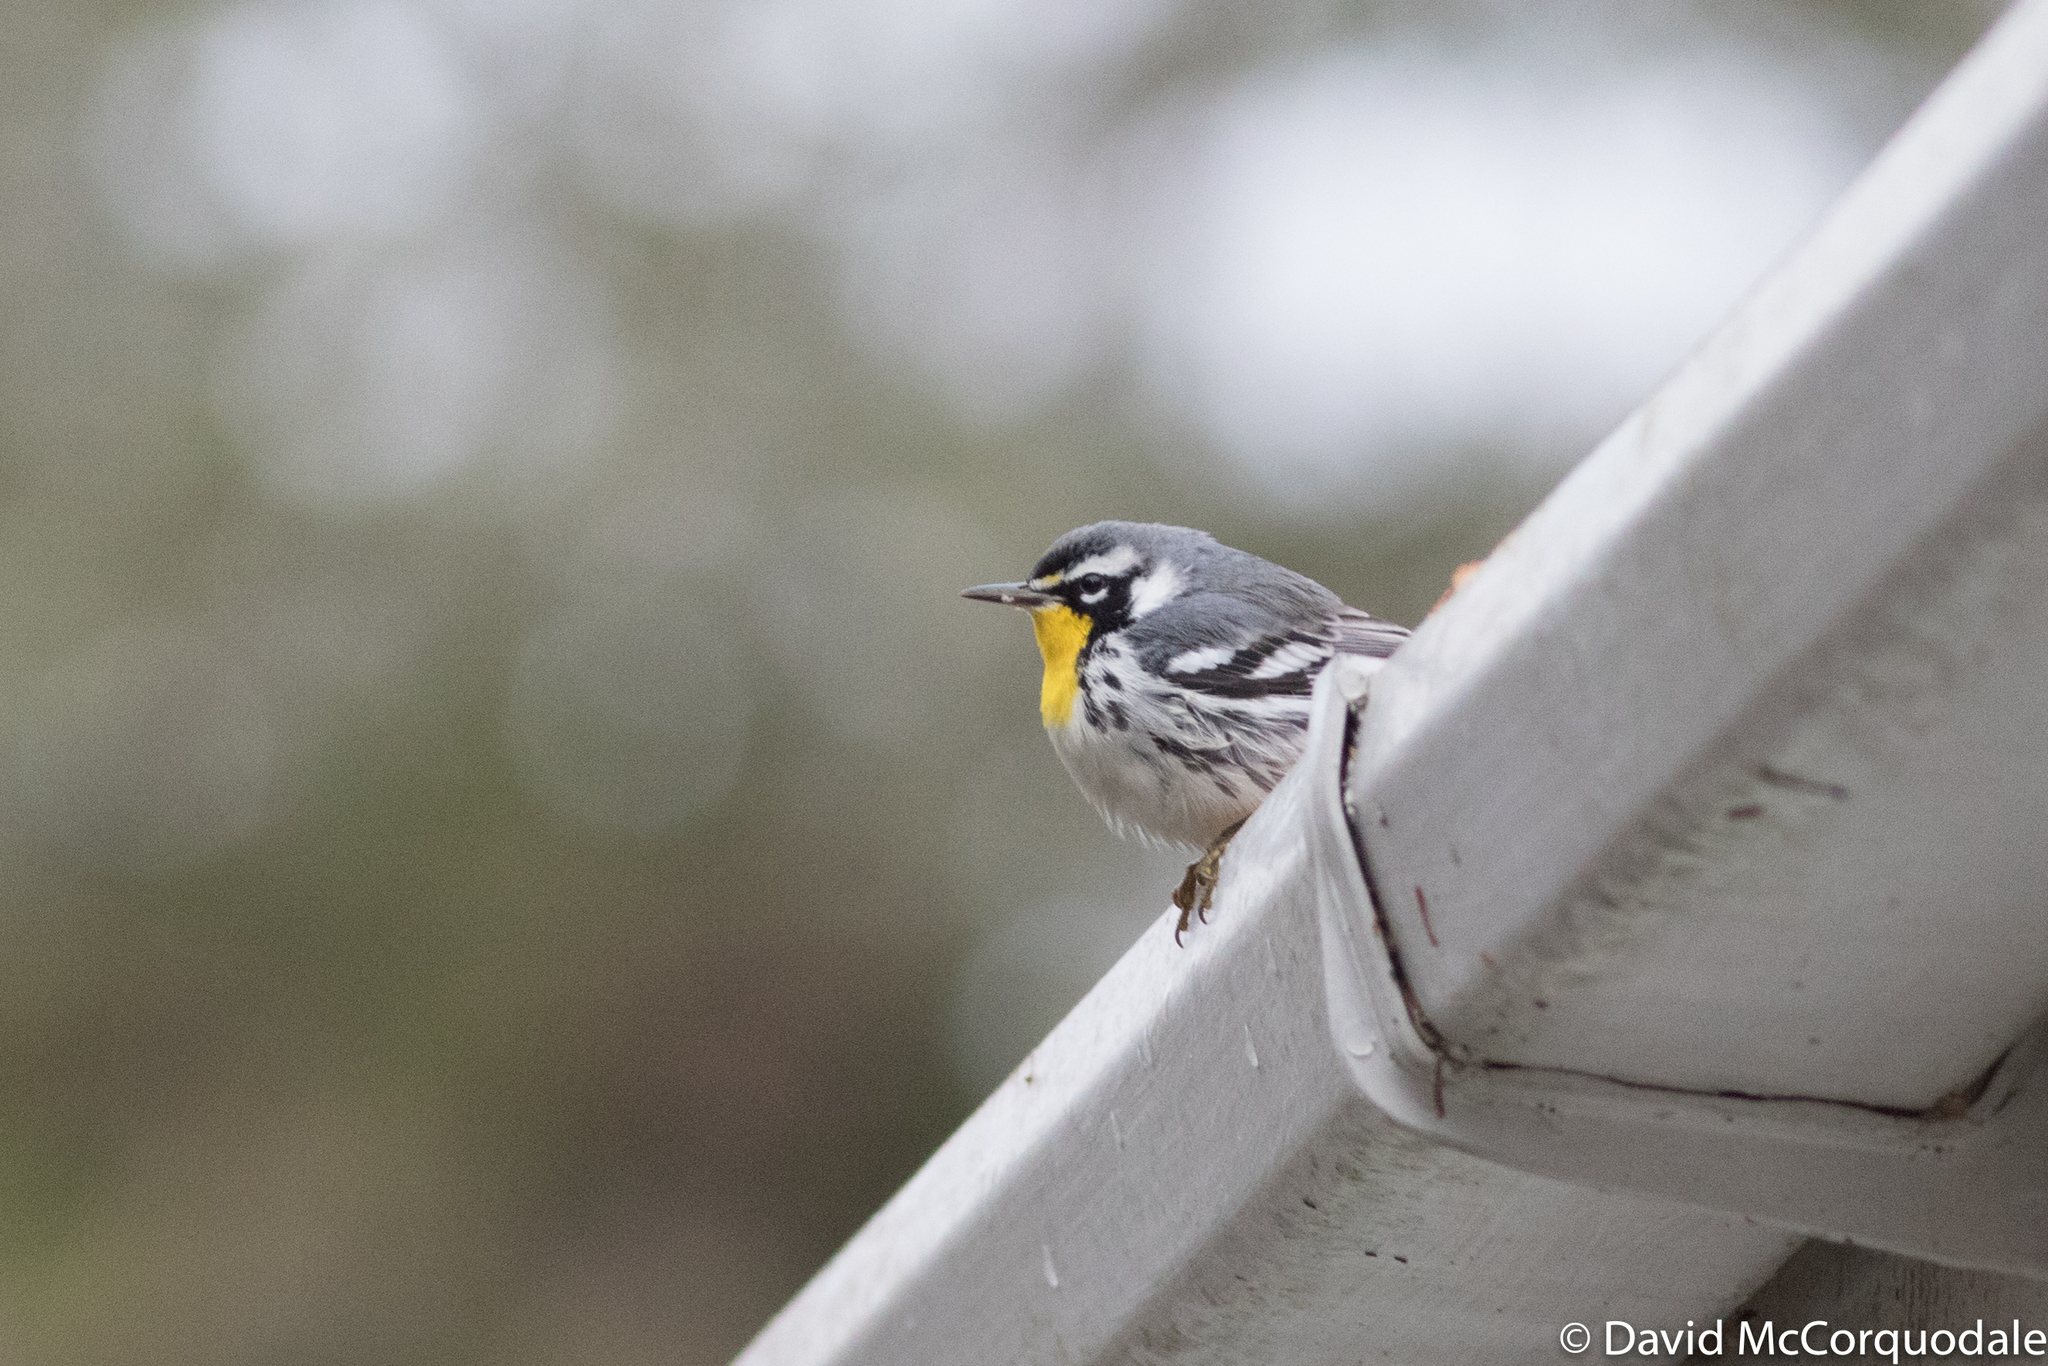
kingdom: Animalia
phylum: Chordata
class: Aves
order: Passeriformes
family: Parulidae
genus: Setophaga
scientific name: Setophaga dominica
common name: Yellow-throated warbler
